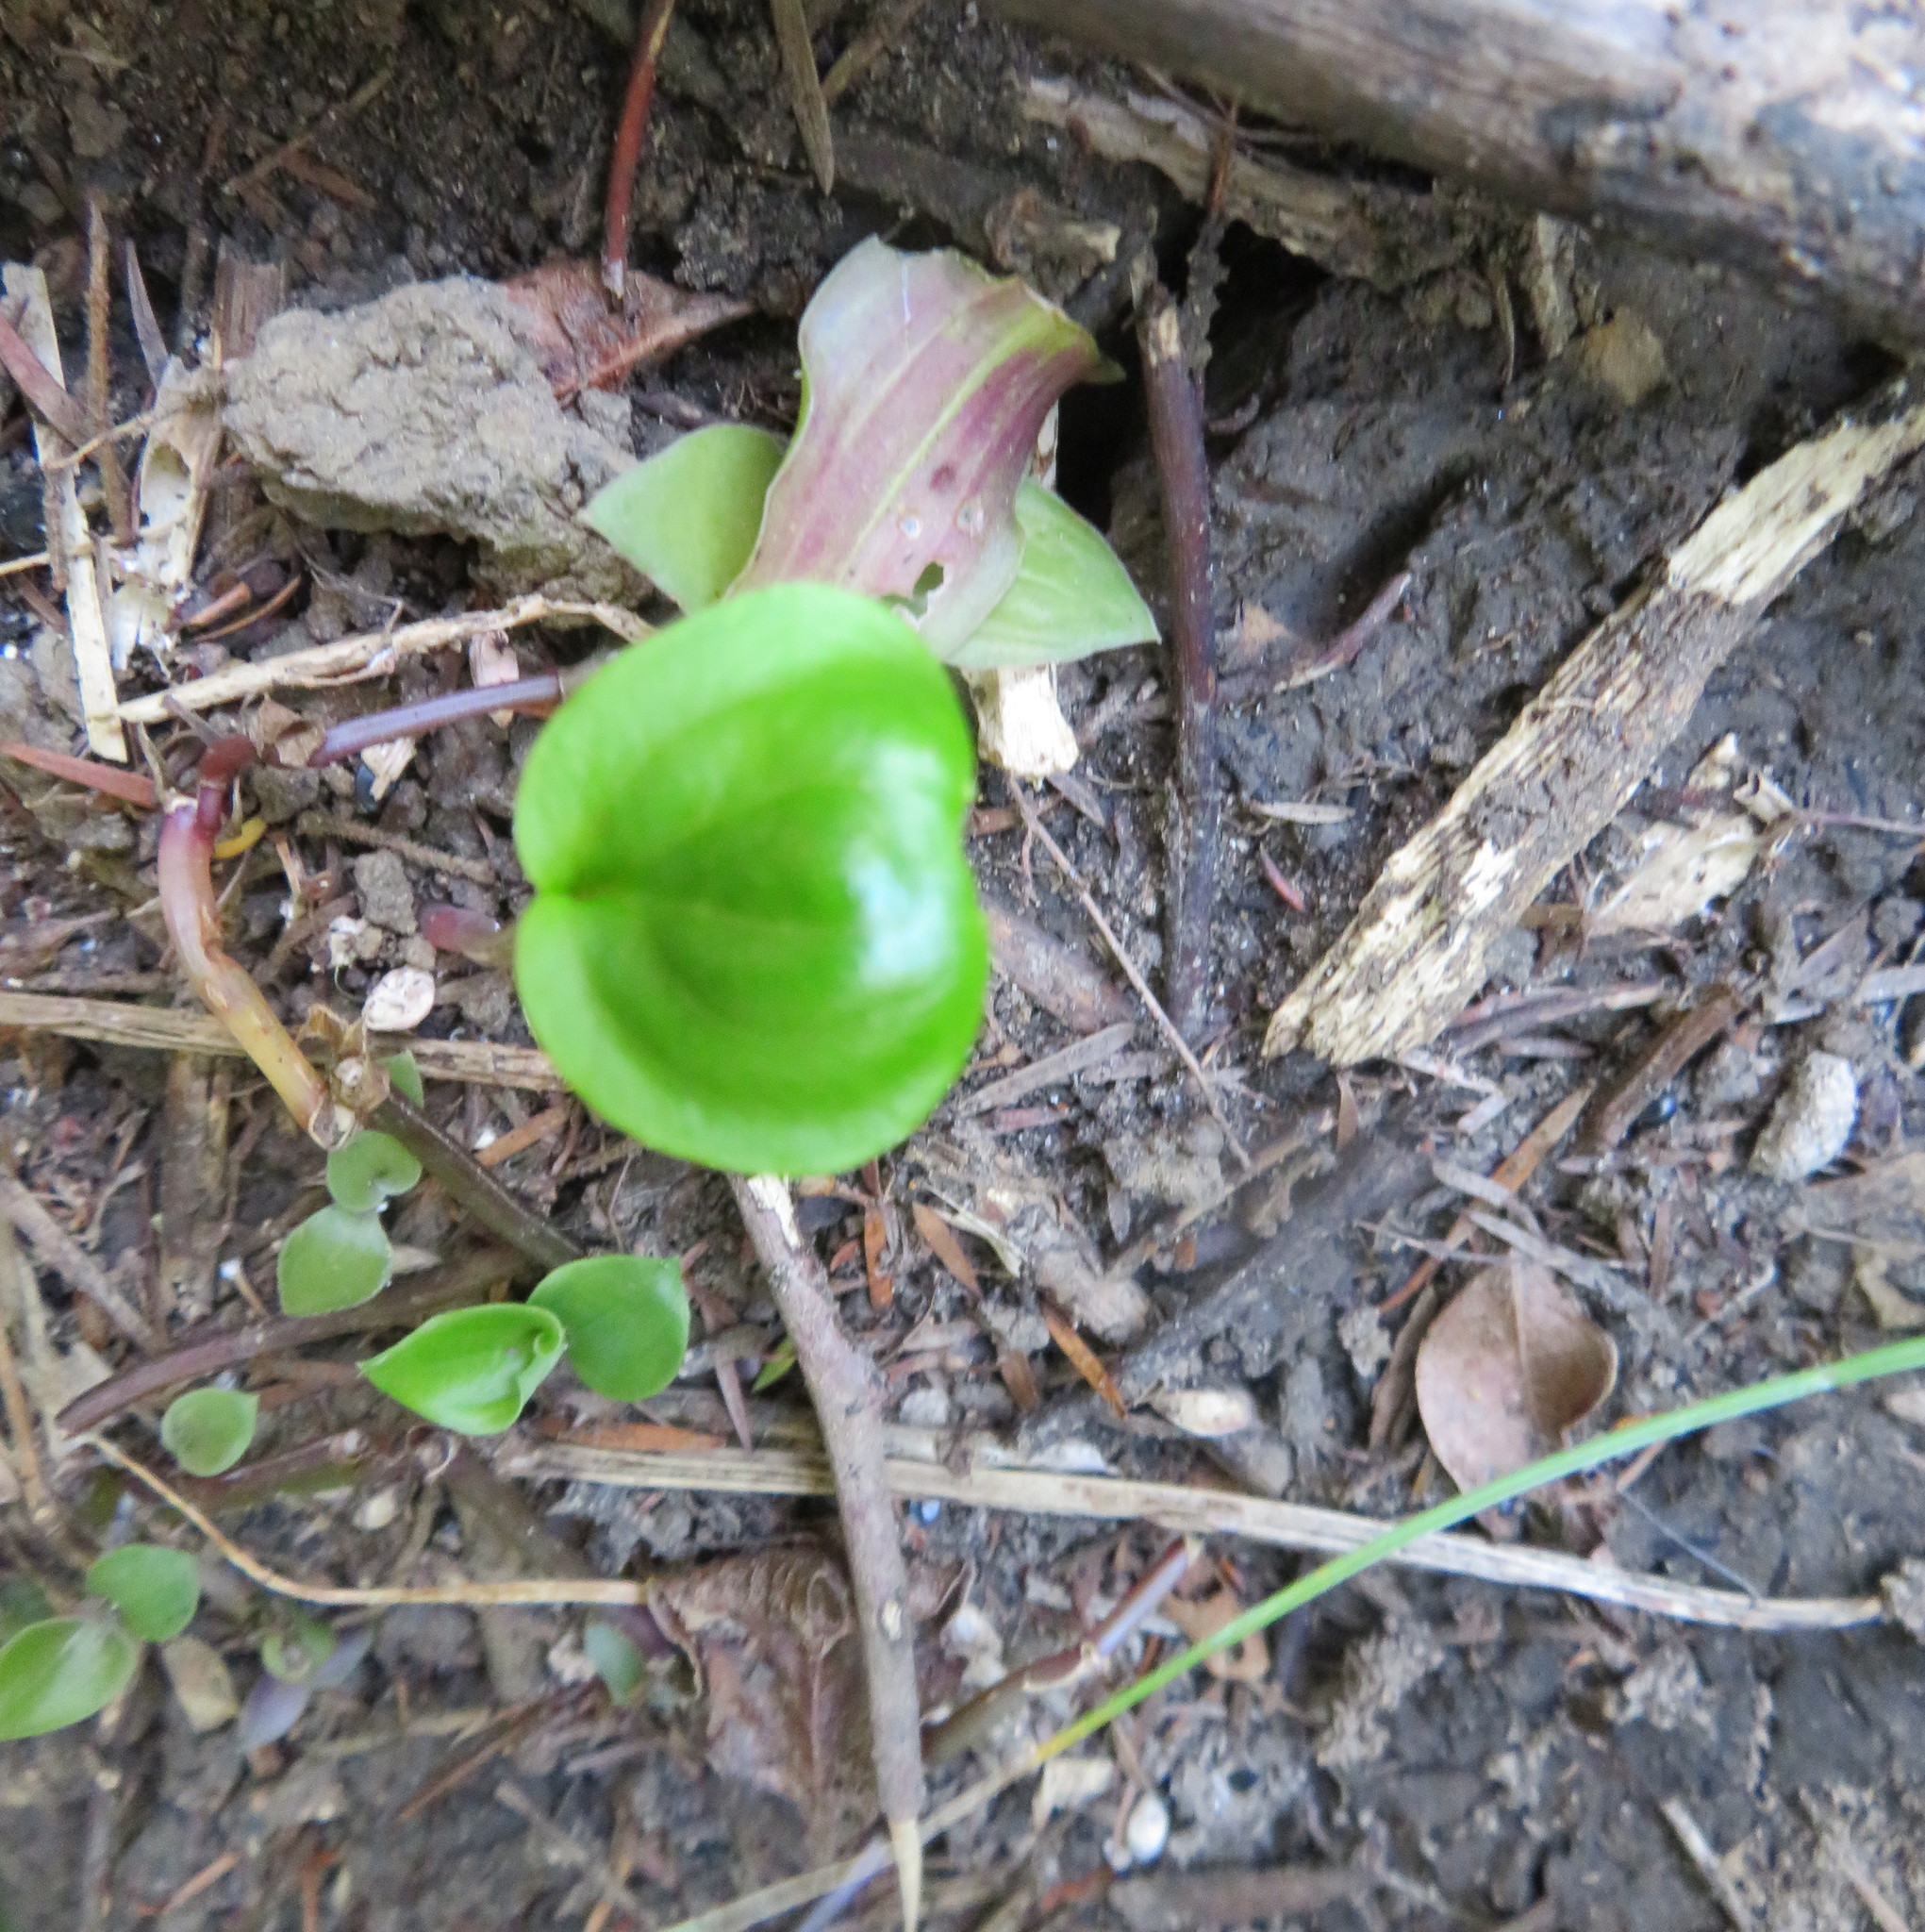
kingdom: Plantae
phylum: Tracheophyta
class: Magnoliopsida
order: Geraniales
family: Melianthaceae
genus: Melianthus
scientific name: Melianthus major
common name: Honey-flower
